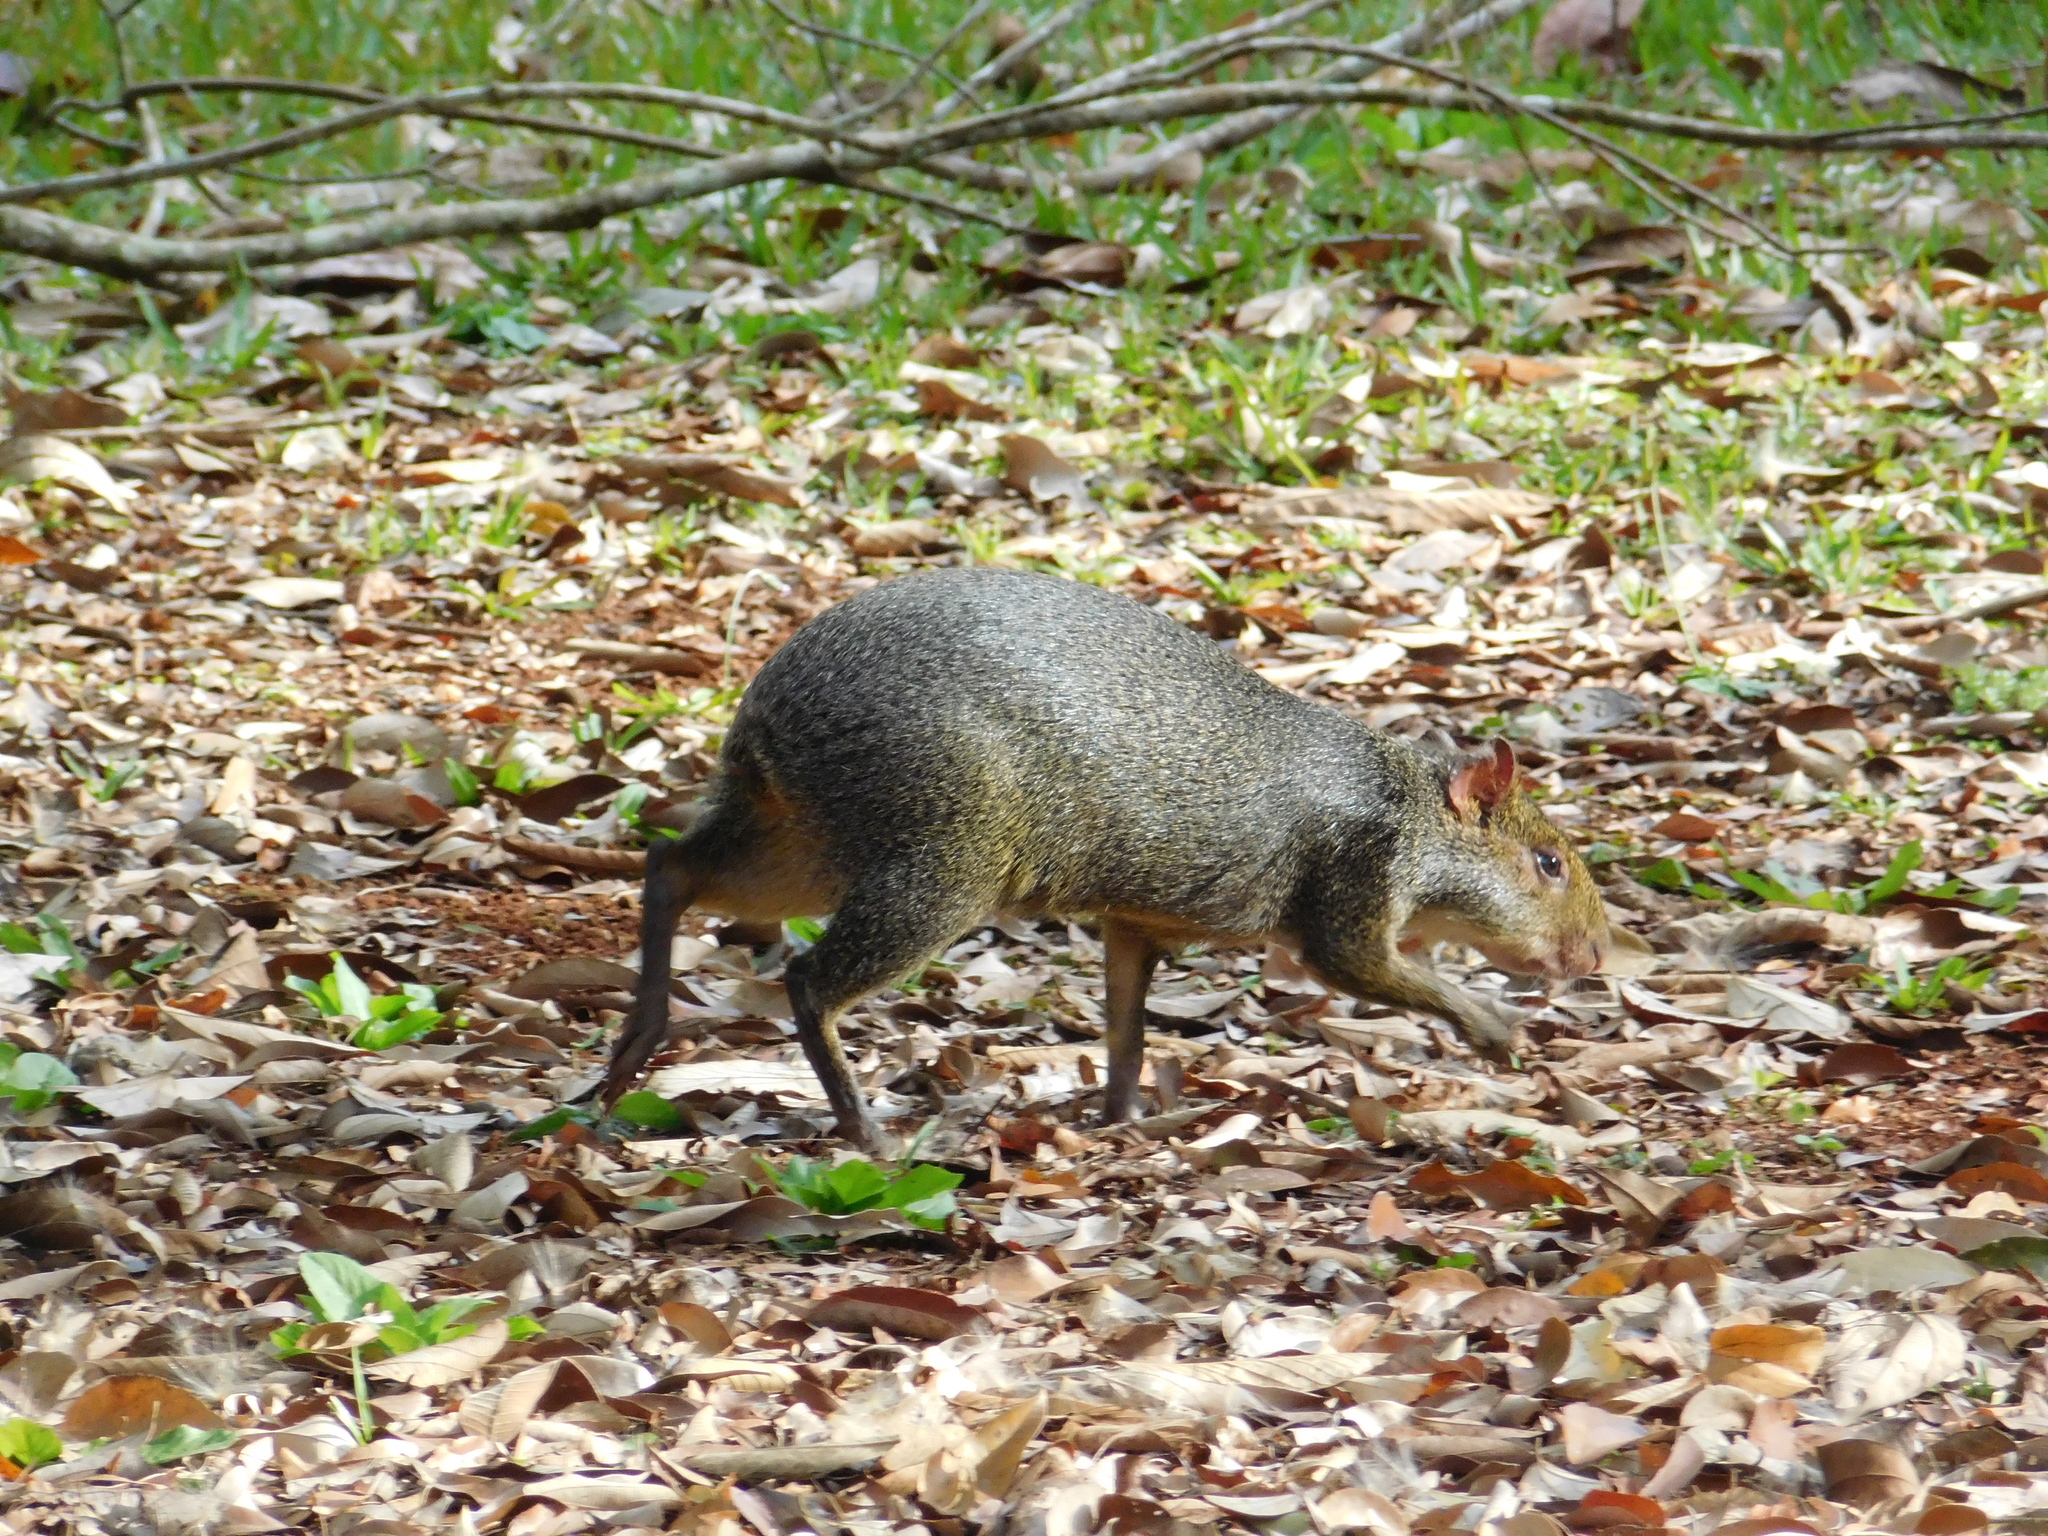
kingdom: Animalia
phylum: Chordata
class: Mammalia
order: Rodentia
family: Dasyproctidae
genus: Dasyprocta
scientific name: Dasyprocta azarae
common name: Azara's agouti
